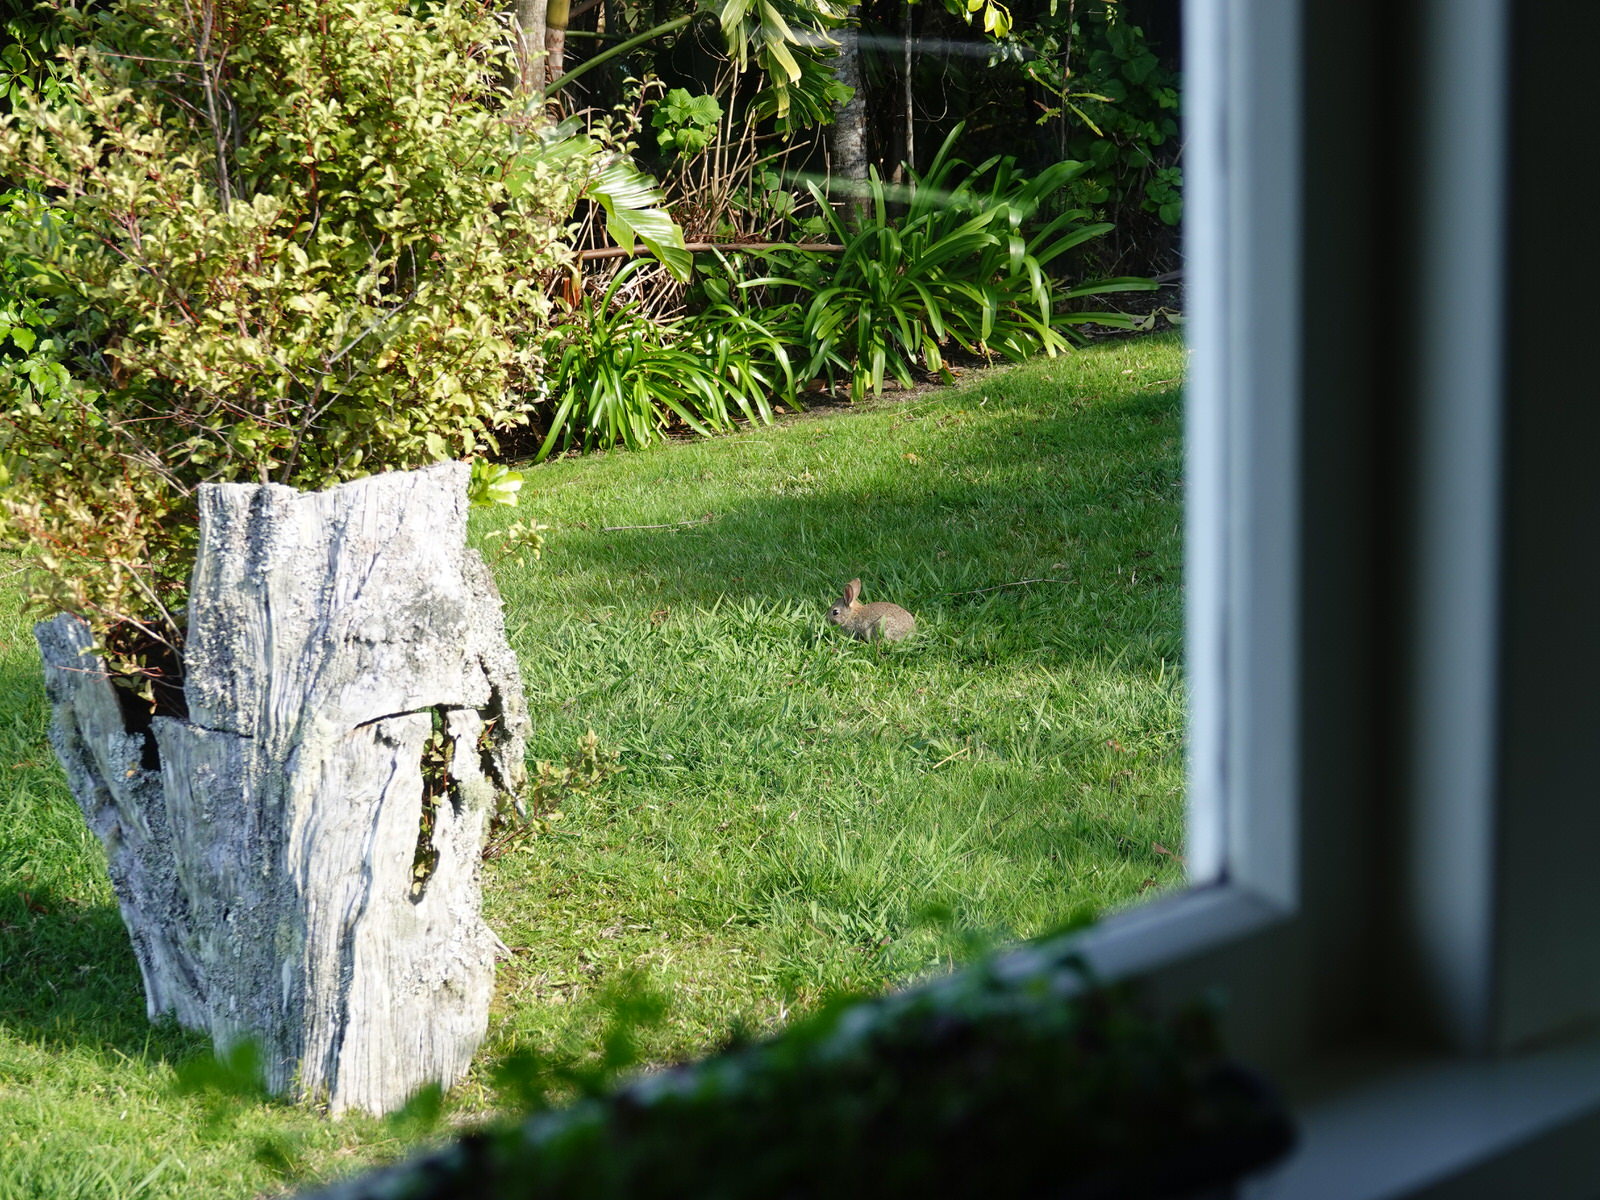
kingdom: Animalia
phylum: Chordata
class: Mammalia
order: Lagomorpha
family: Leporidae
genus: Oryctolagus
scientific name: Oryctolagus cuniculus
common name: European rabbit
